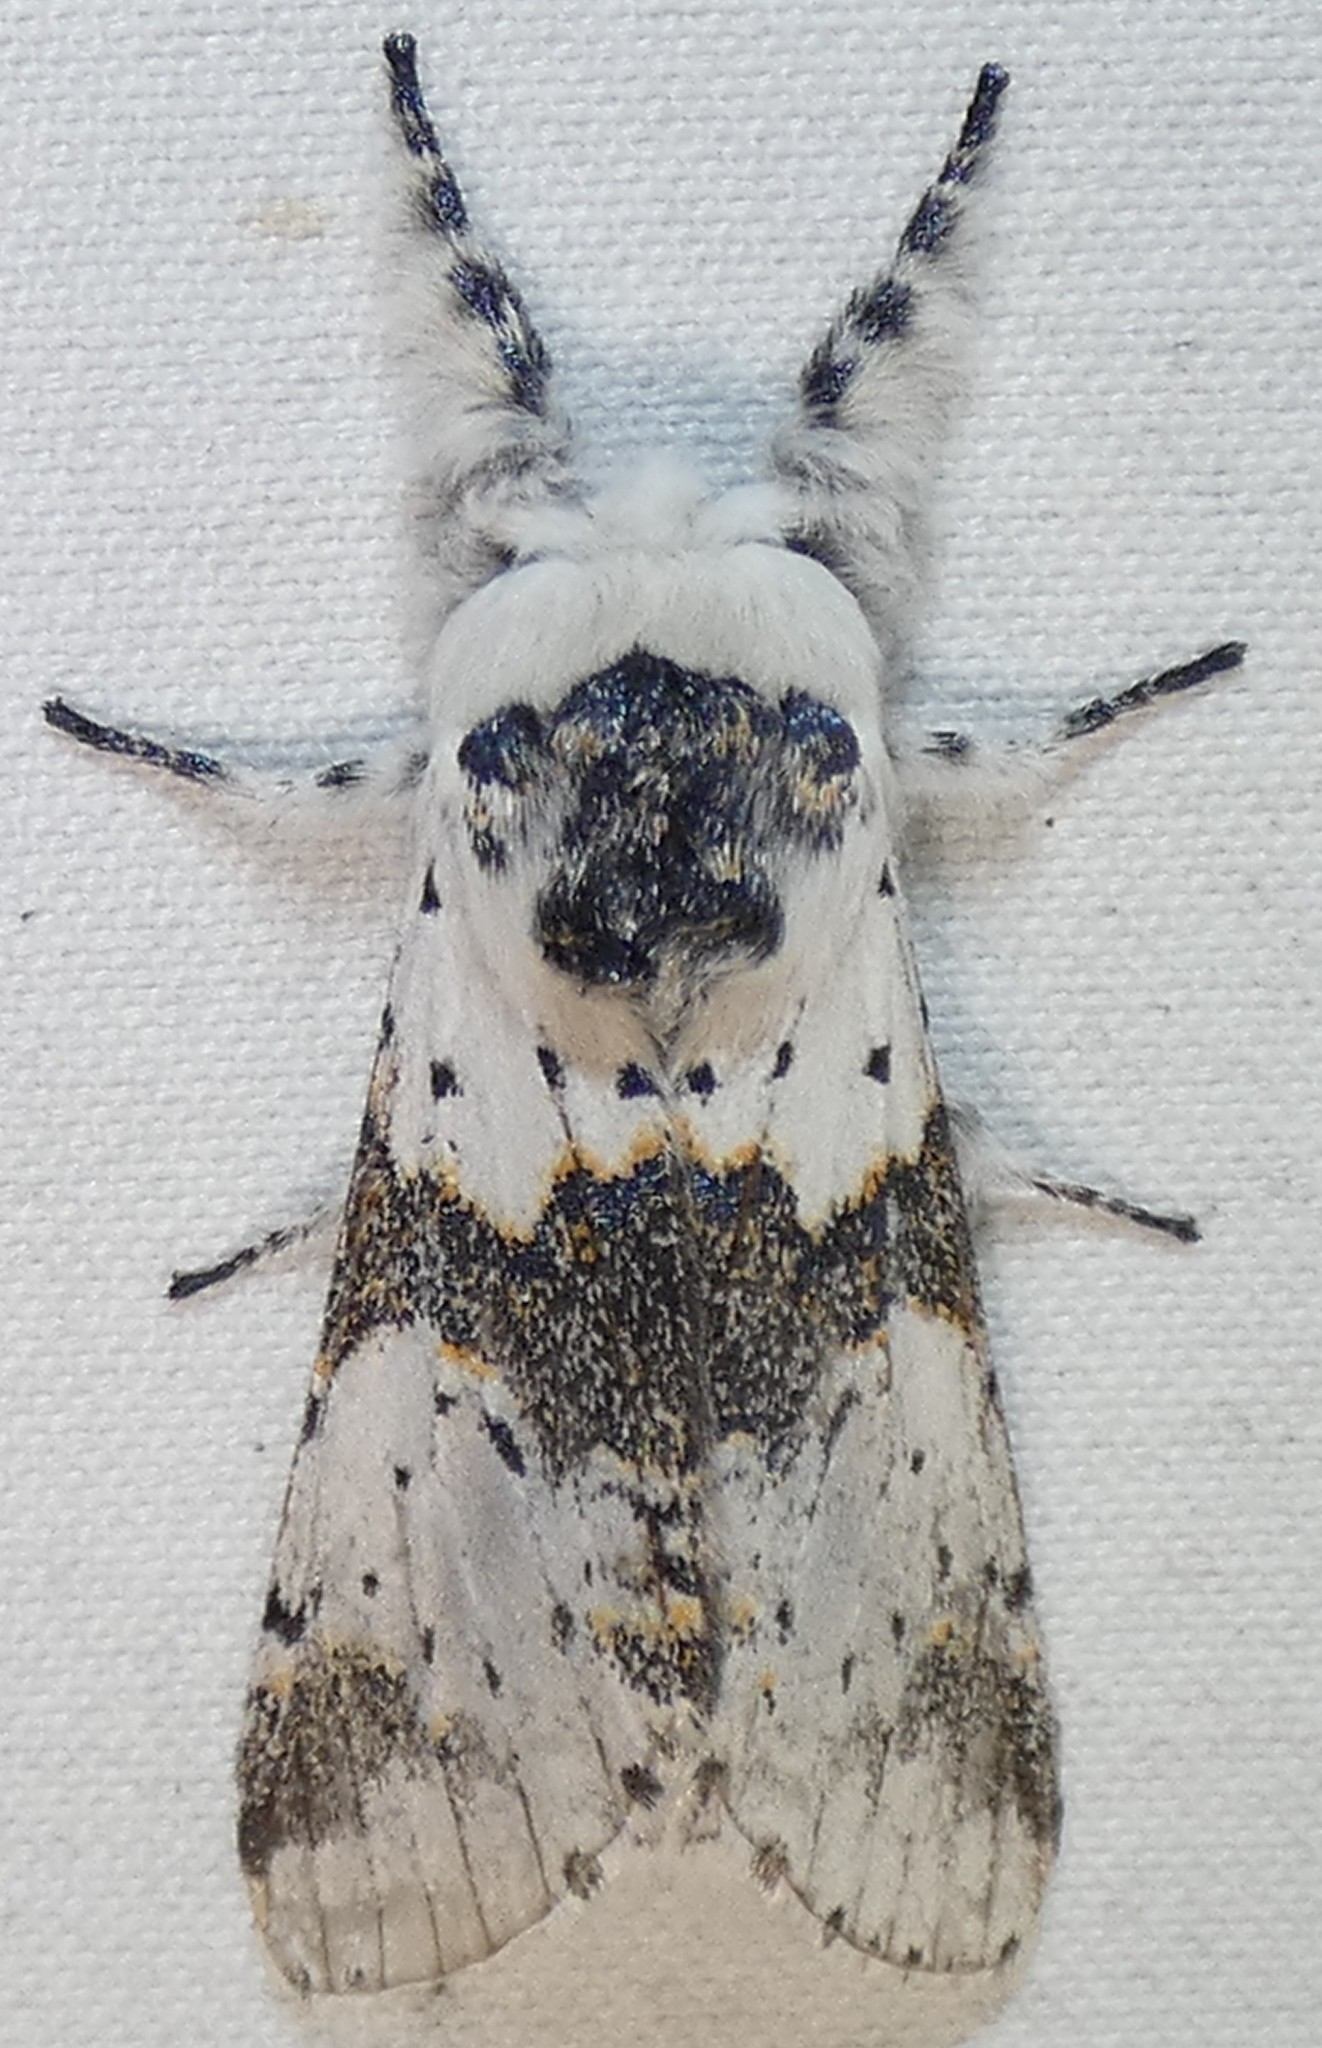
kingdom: Animalia
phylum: Arthropoda
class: Insecta
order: Lepidoptera
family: Notodontidae
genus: Furcula
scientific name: Furcula borealis
